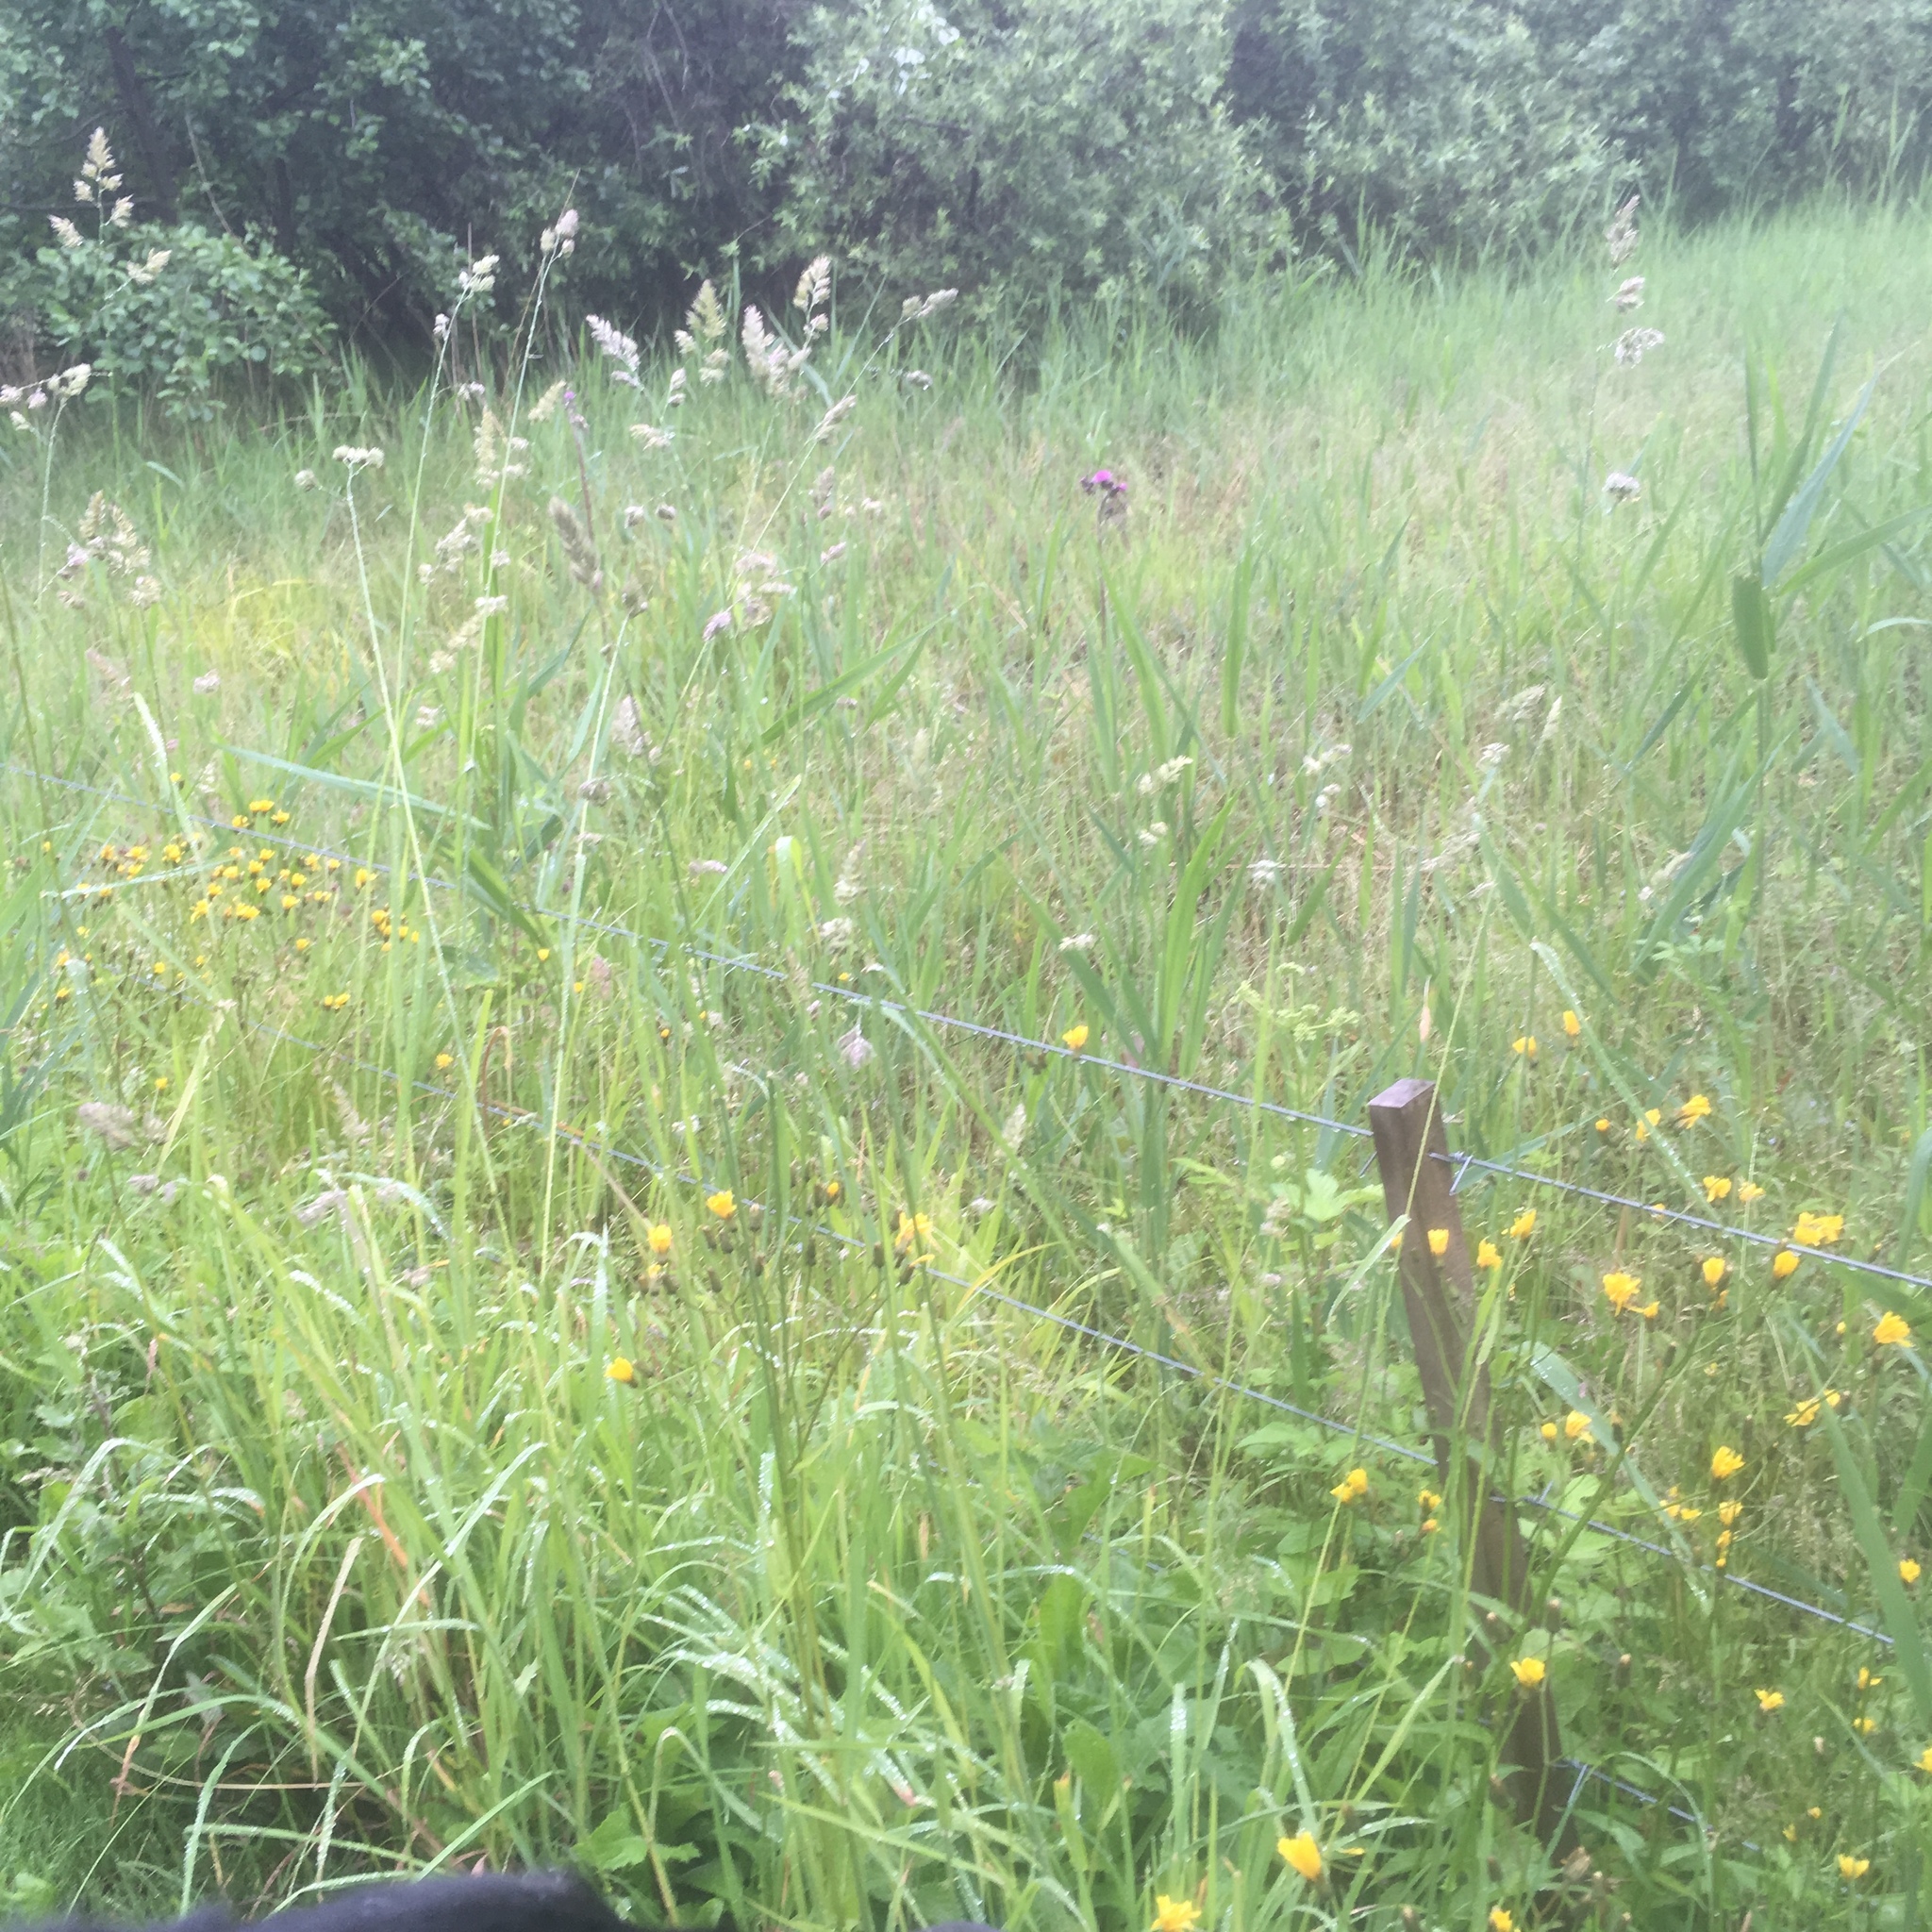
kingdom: Plantae
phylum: Tracheophyta
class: Liliopsida
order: Poales
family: Poaceae
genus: Dactylis
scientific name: Dactylis glomerata
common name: Orchardgrass
